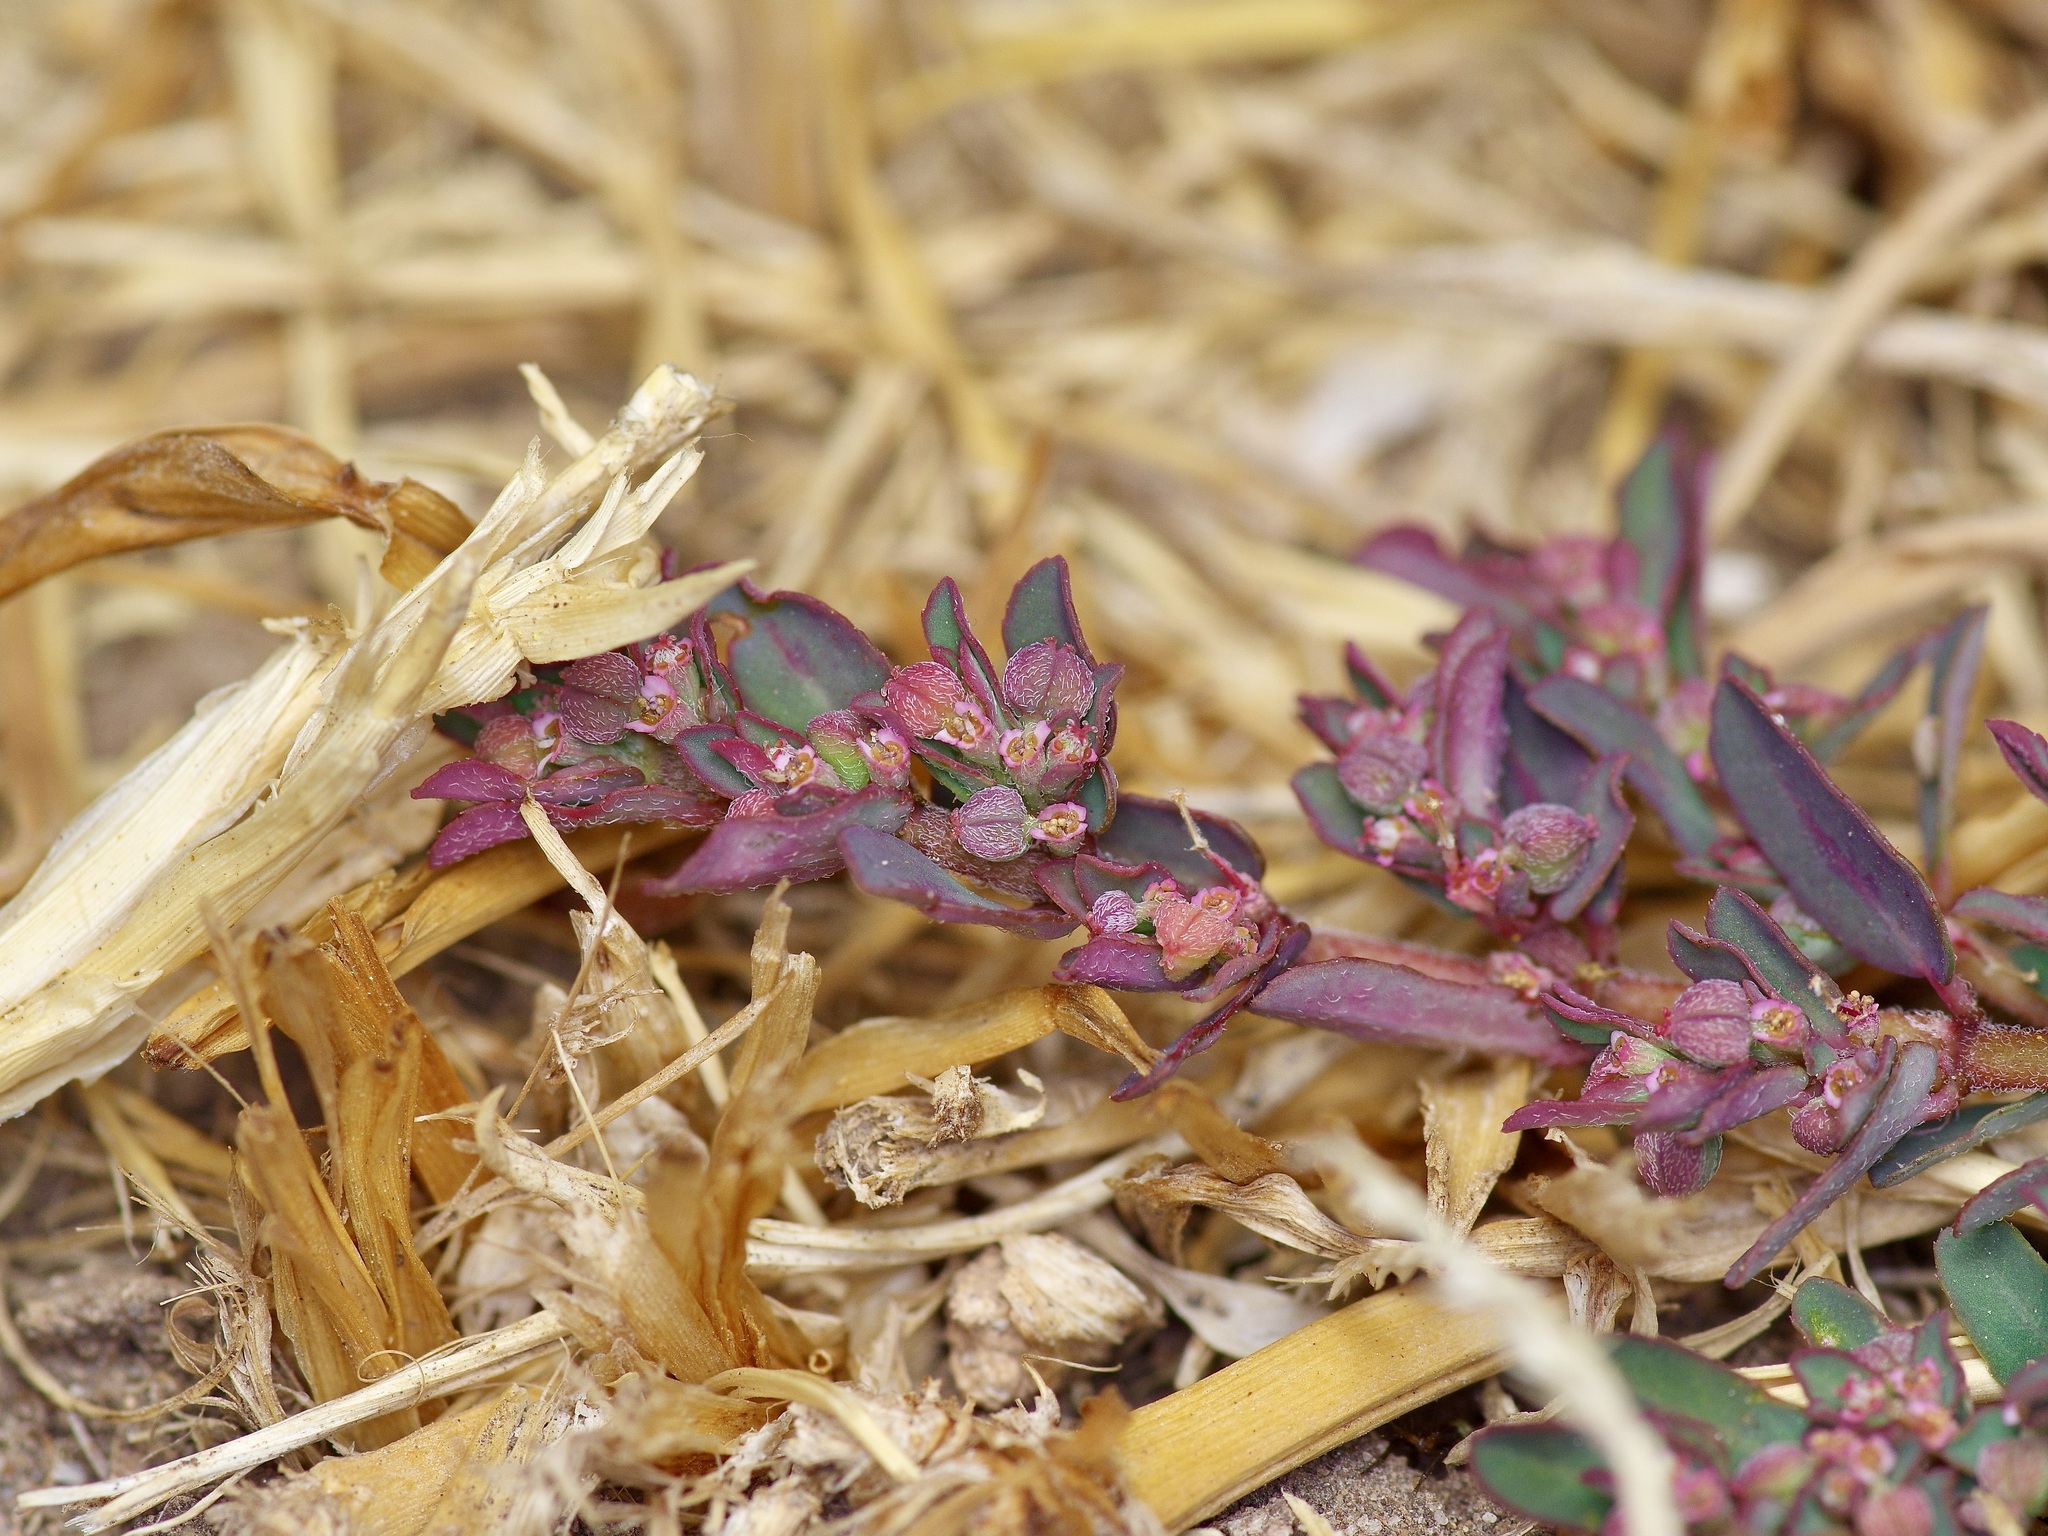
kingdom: Plantae
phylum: Tracheophyta
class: Magnoliopsida
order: Malpighiales
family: Euphorbiaceae
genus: Euphorbia
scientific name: Euphorbia maculata
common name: Spotted spurge
